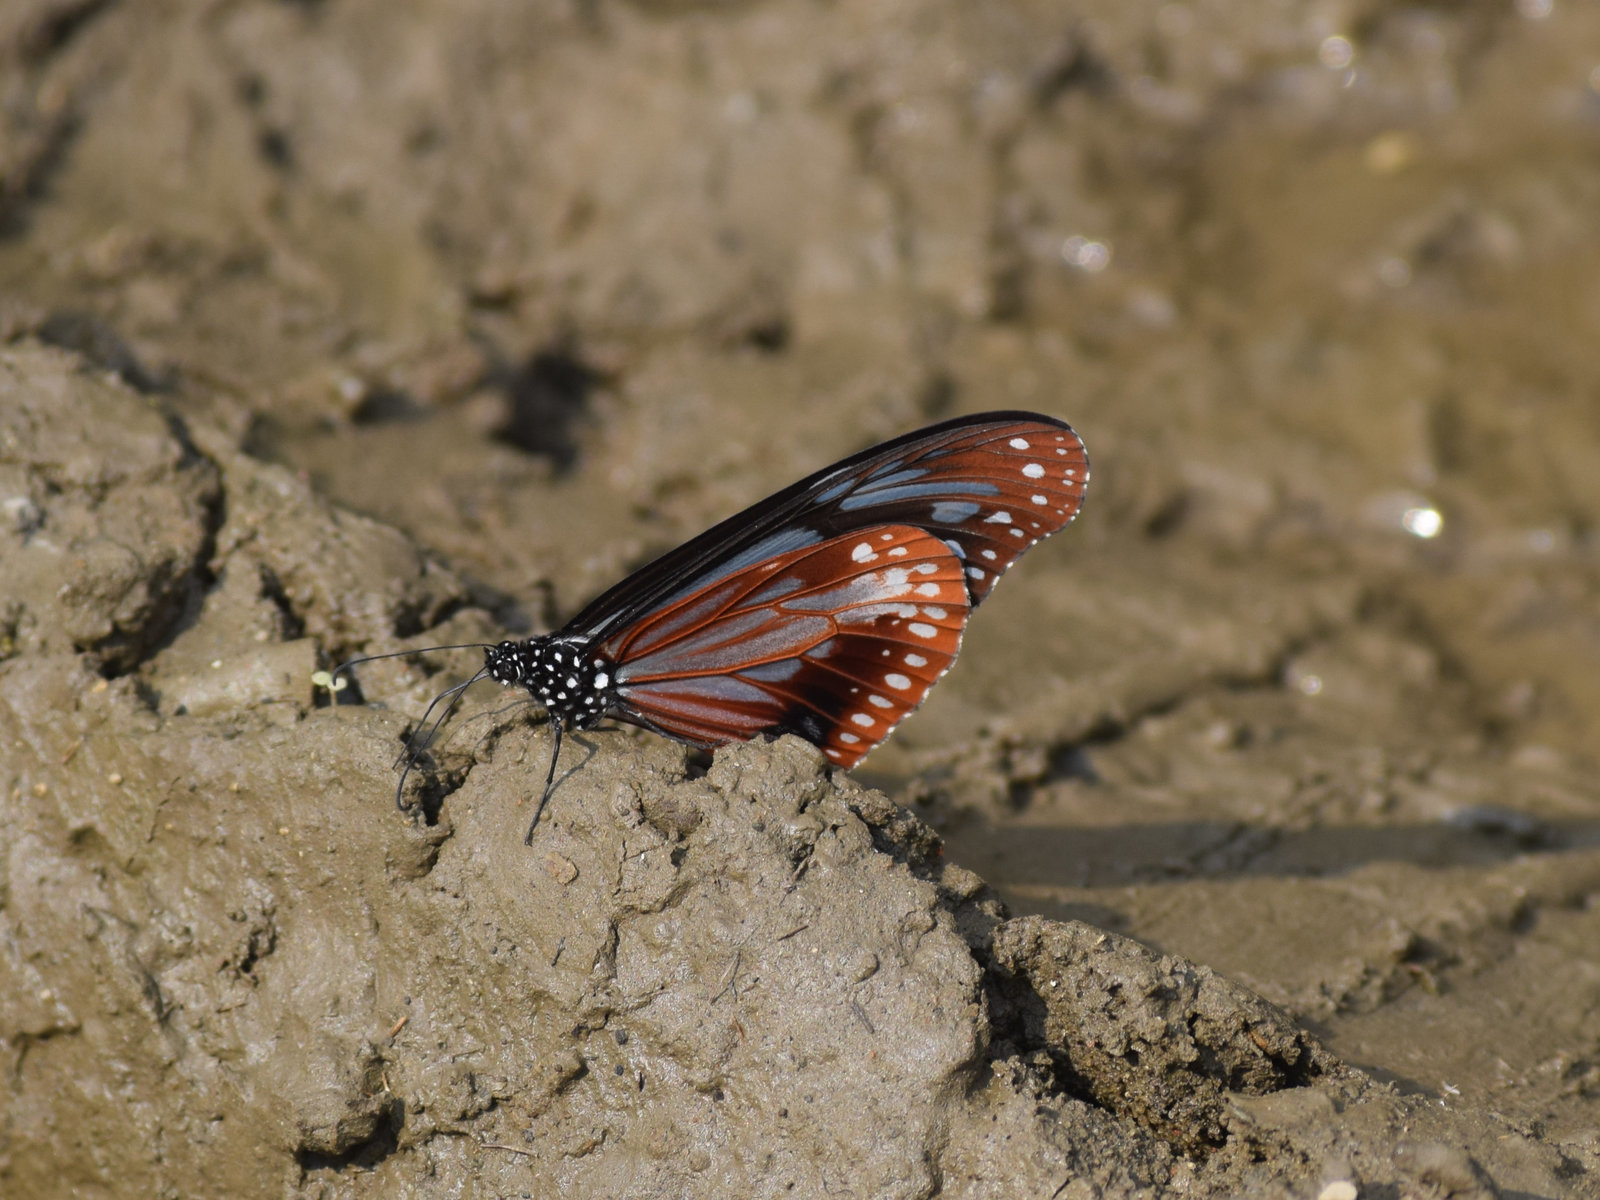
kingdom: Animalia
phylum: Arthropoda
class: Insecta
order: Lepidoptera
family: Nymphalidae
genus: Parantica
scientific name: Parantica sita
